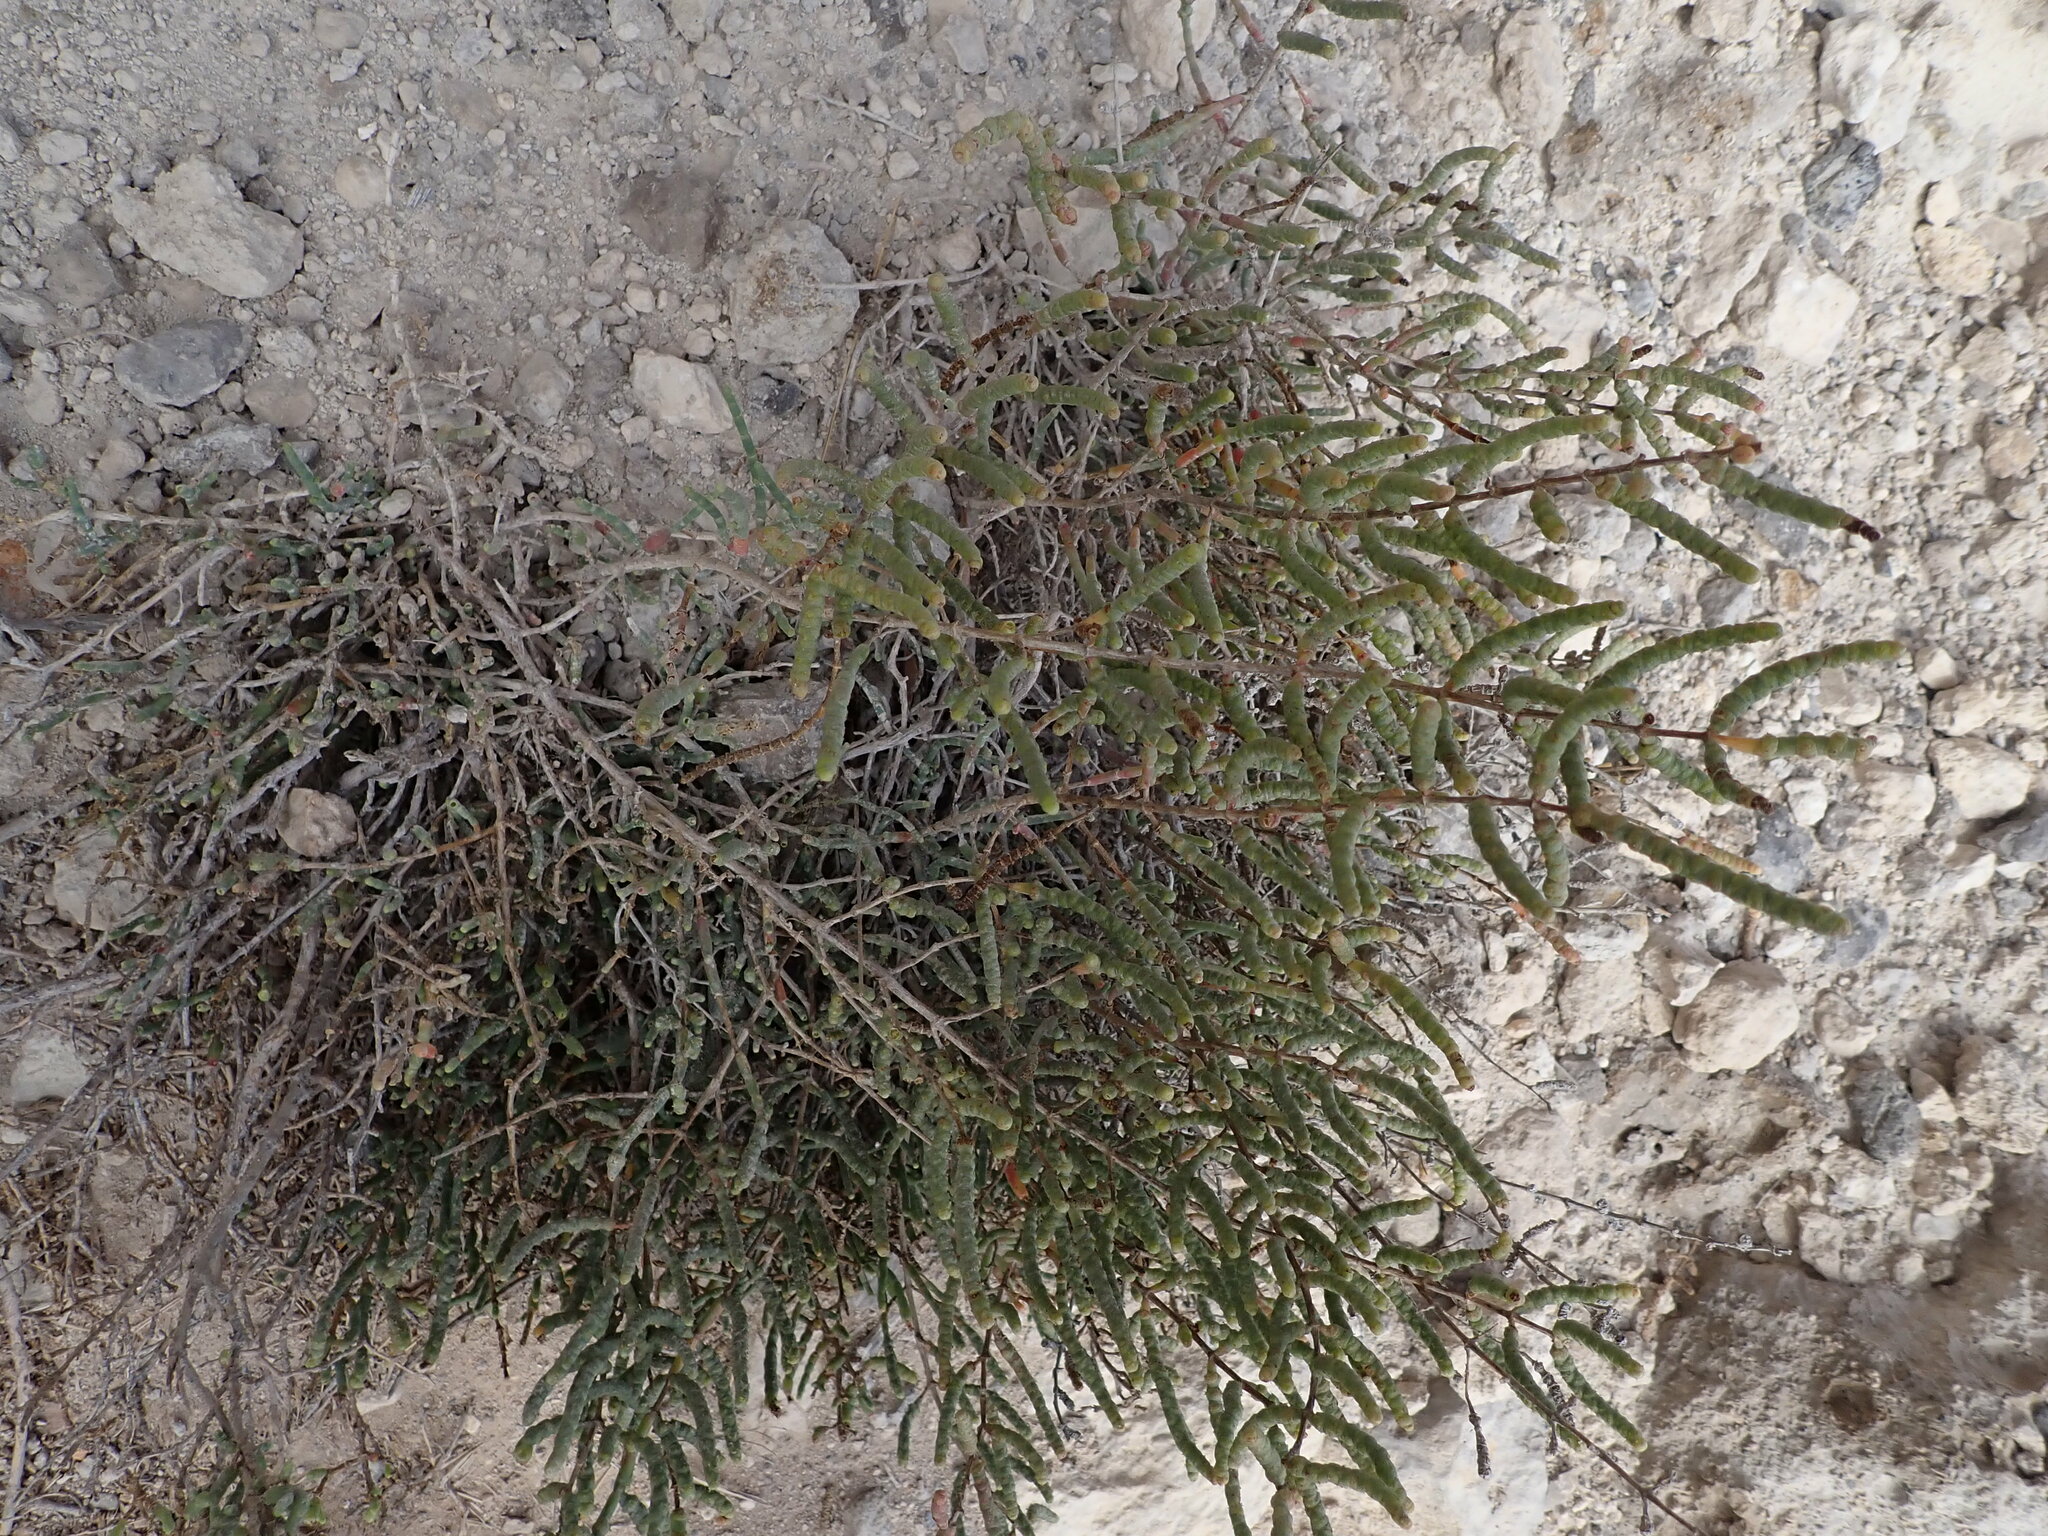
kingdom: Plantae
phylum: Tracheophyta
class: Magnoliopsida
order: Caryophyllales
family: Amaranthaceae
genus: Salicornia
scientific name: Salicornia fruticosa
